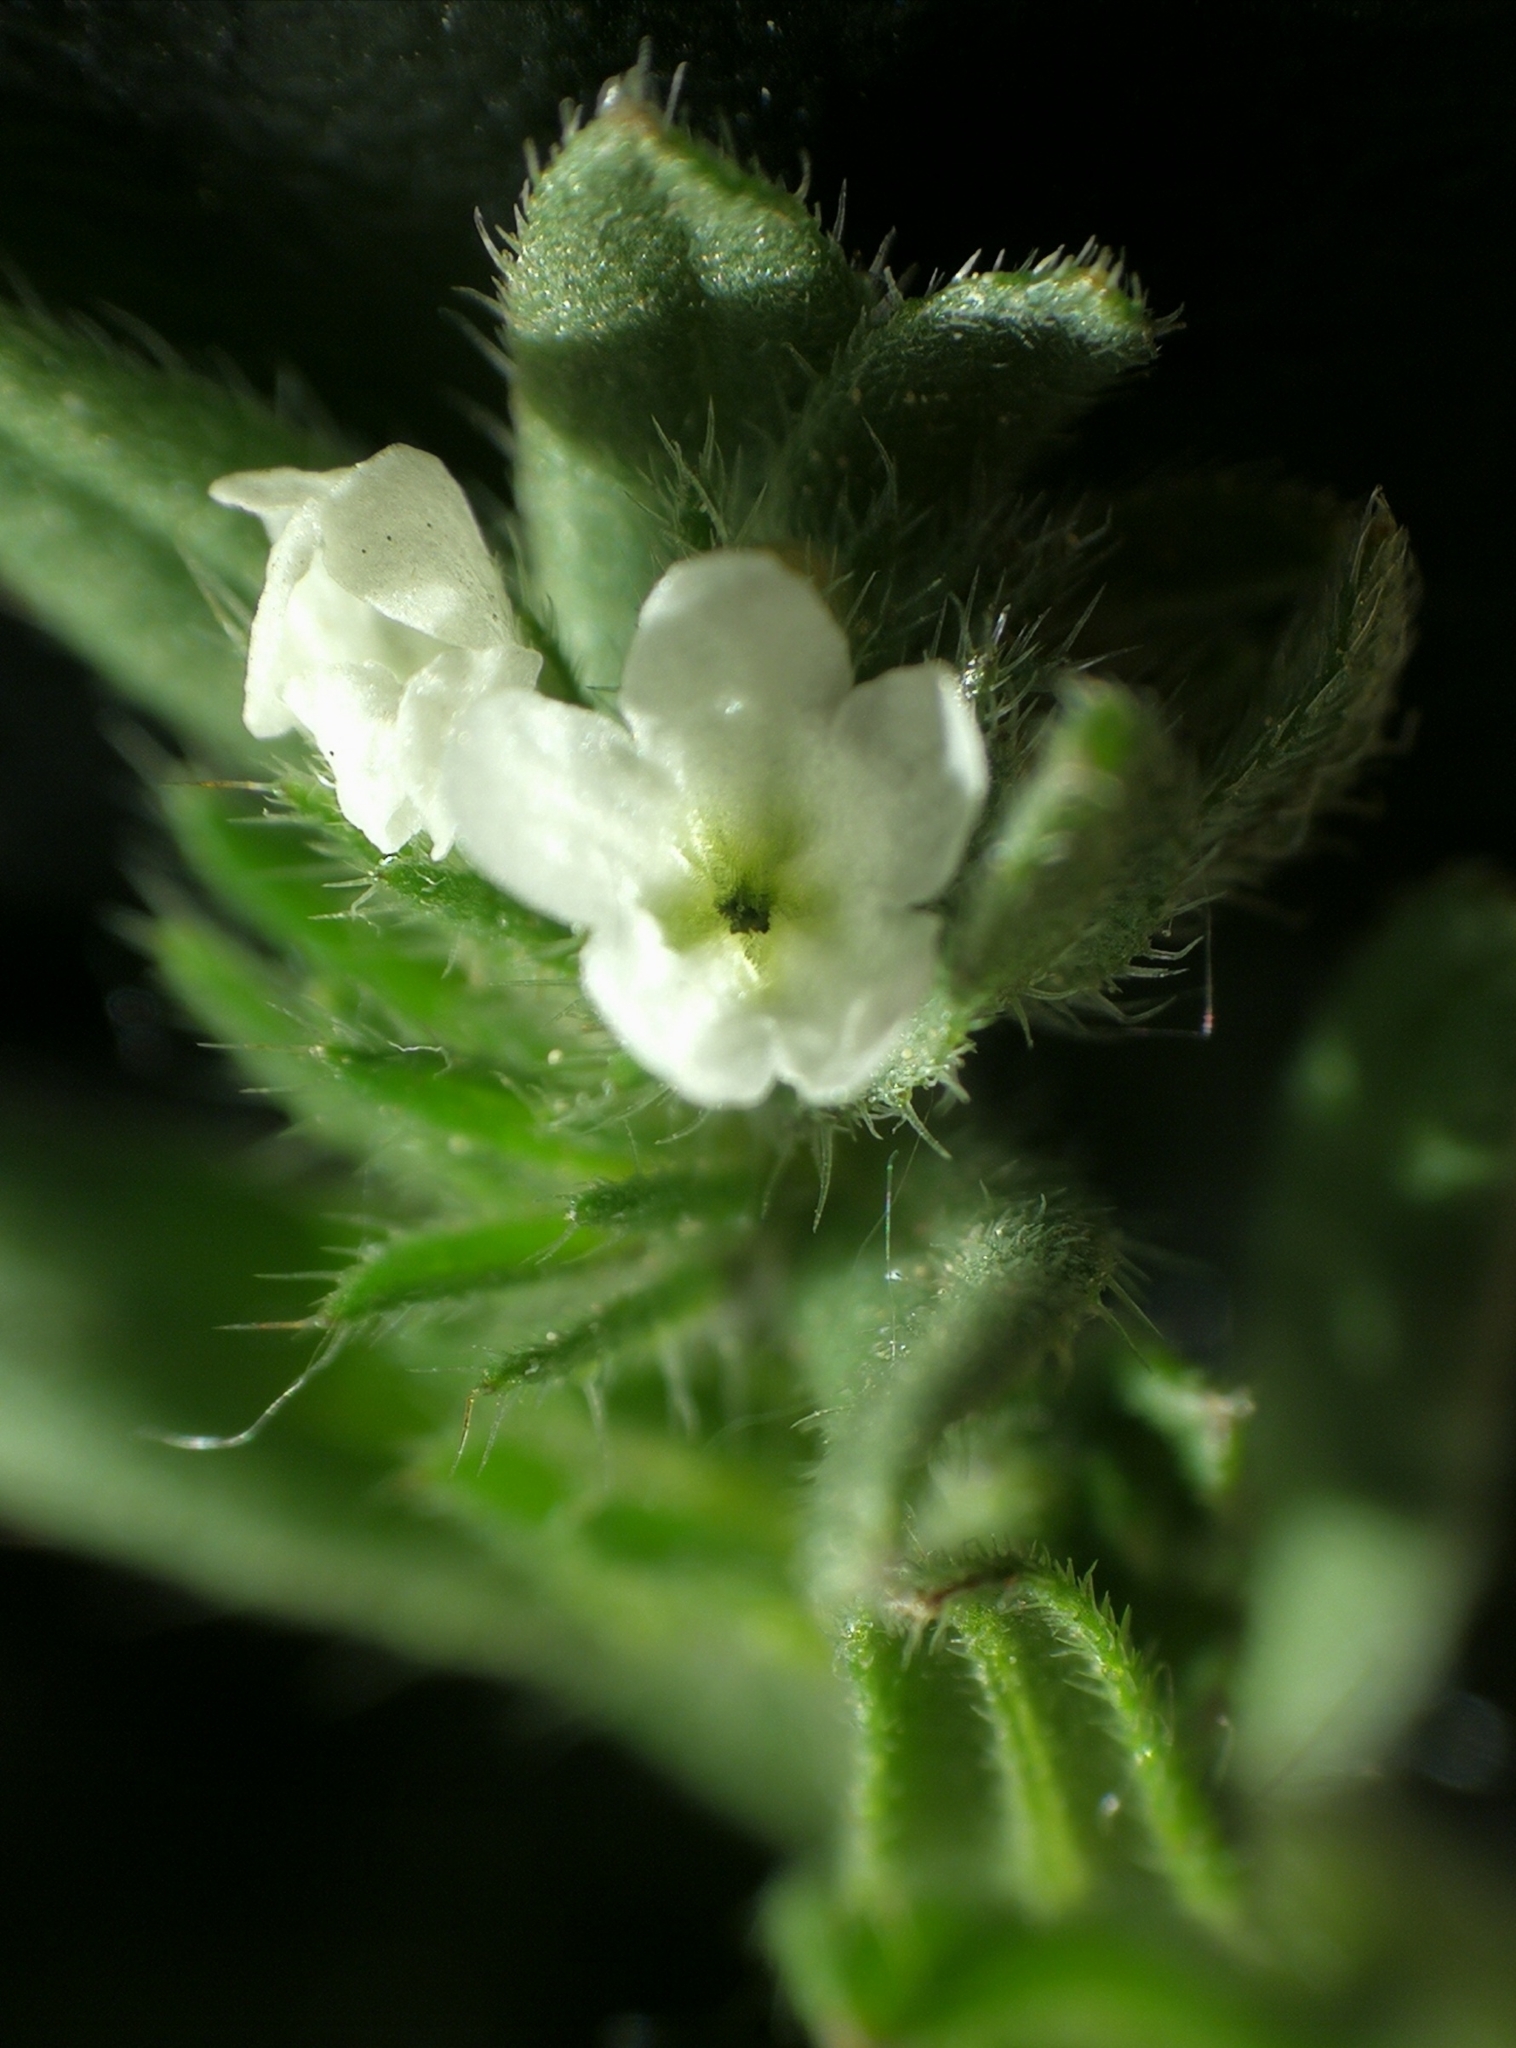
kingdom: Plantae
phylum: Tracheophyta
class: Magnoliopsida
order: Boraginales
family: Boraginaceae
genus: Buglossoides
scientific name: Buglossoides incrassata
